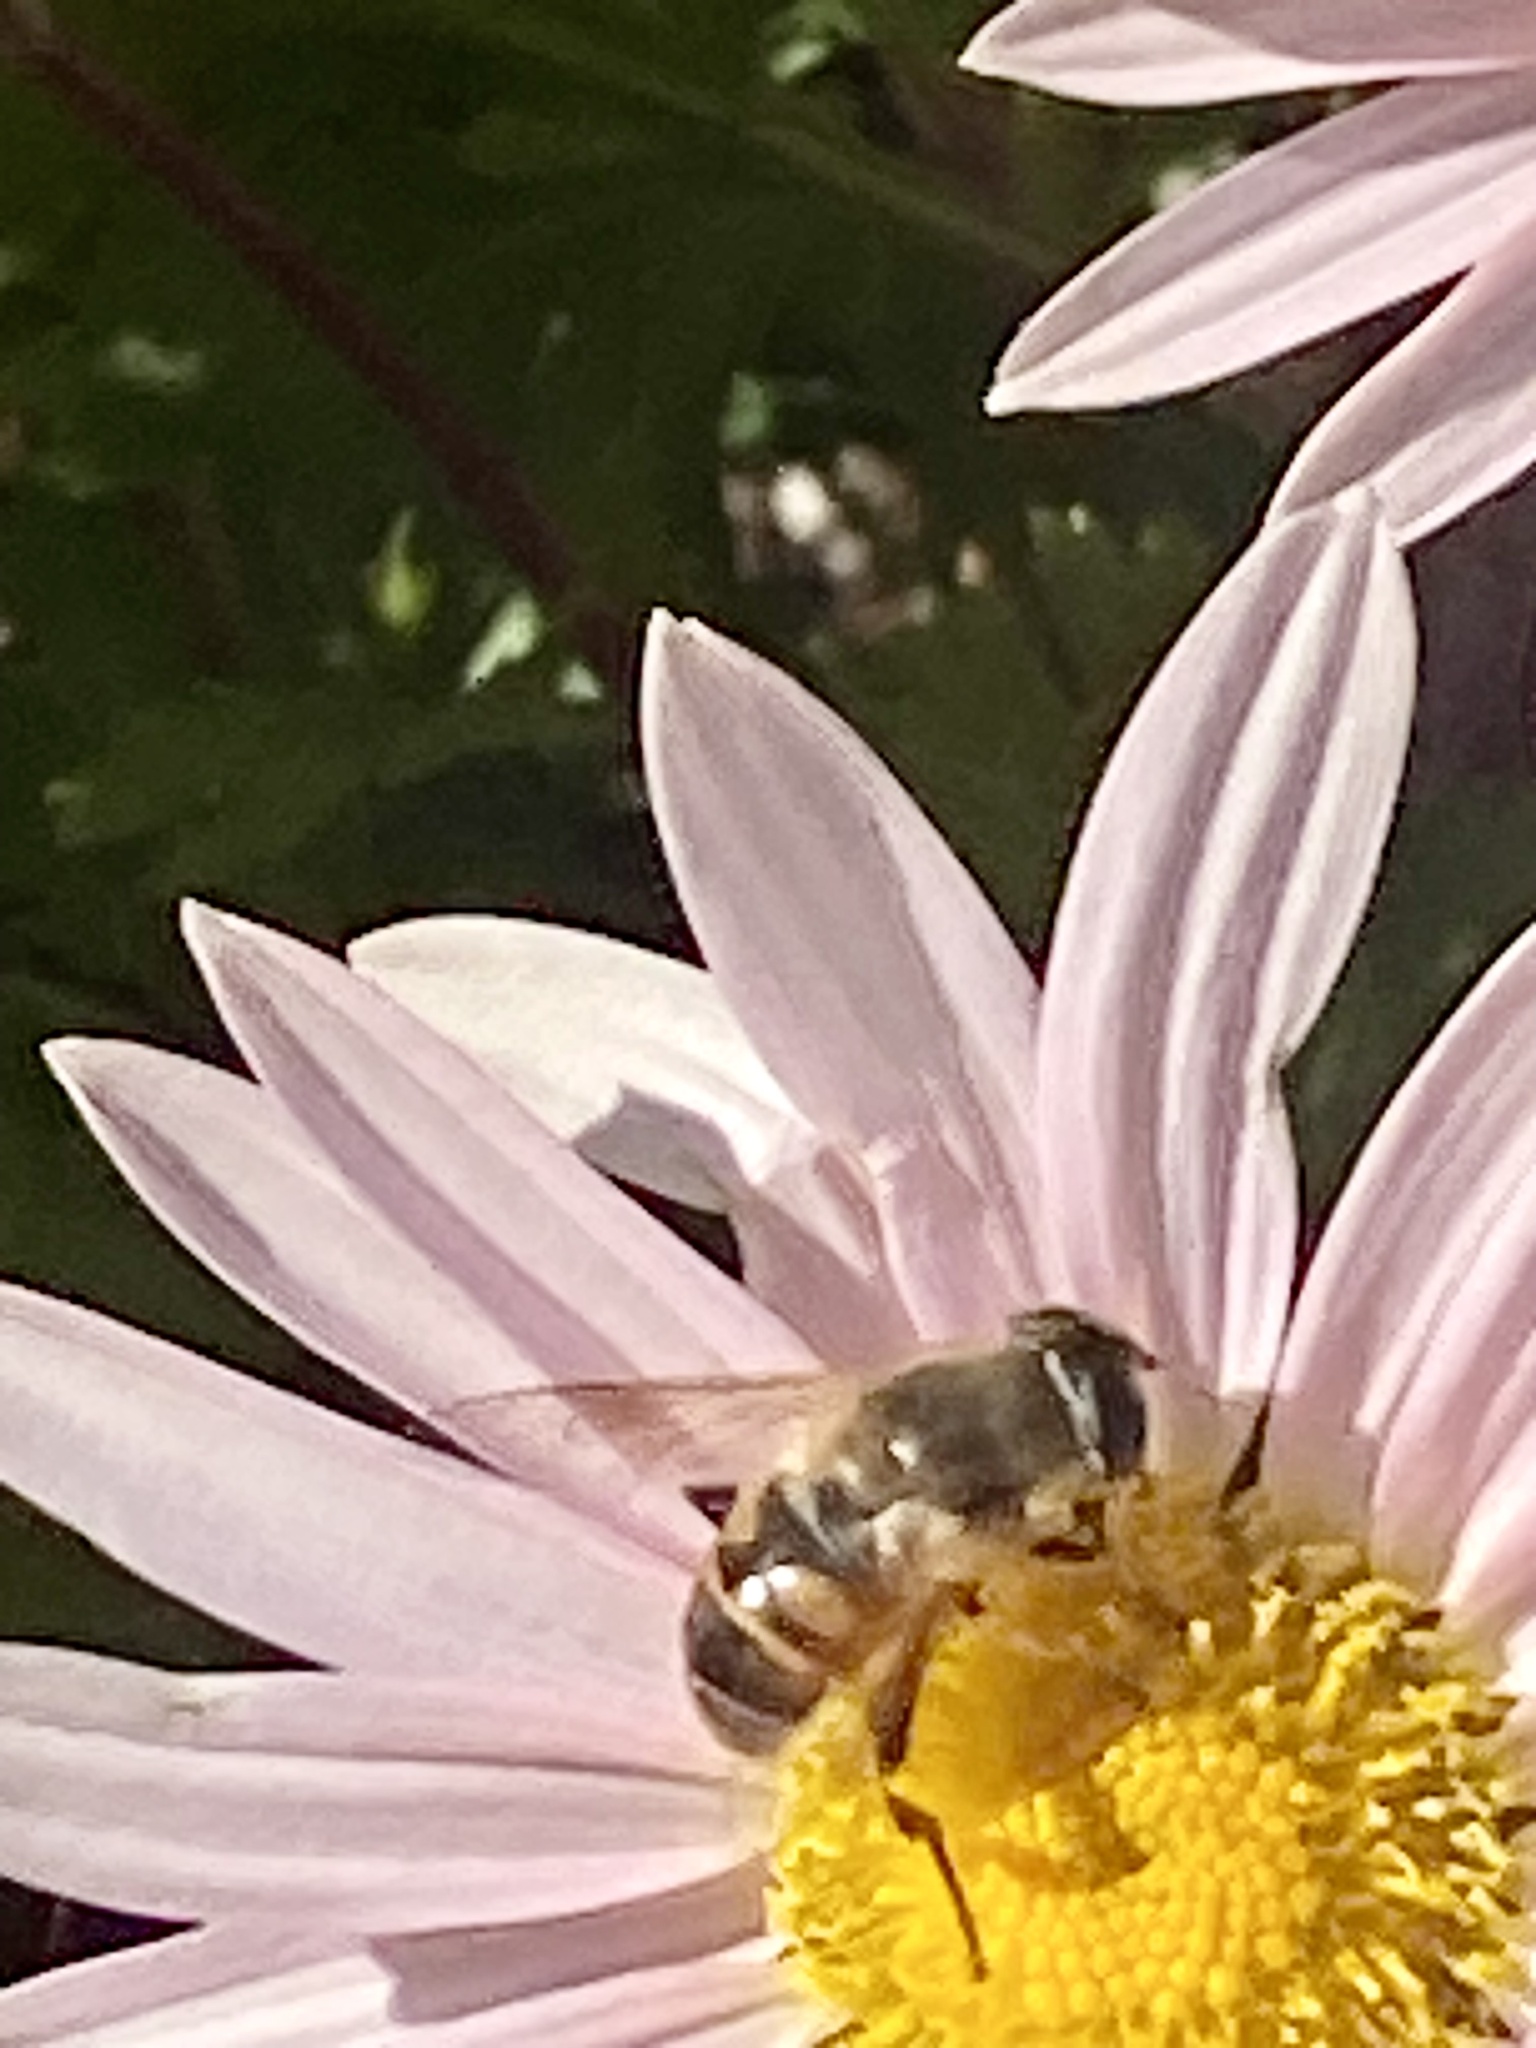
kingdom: Animalia
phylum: Arthropoda
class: Insecta
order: Diptera
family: Syrphidae
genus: Eristalis
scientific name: Eristalis tenax
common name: Drone fly
